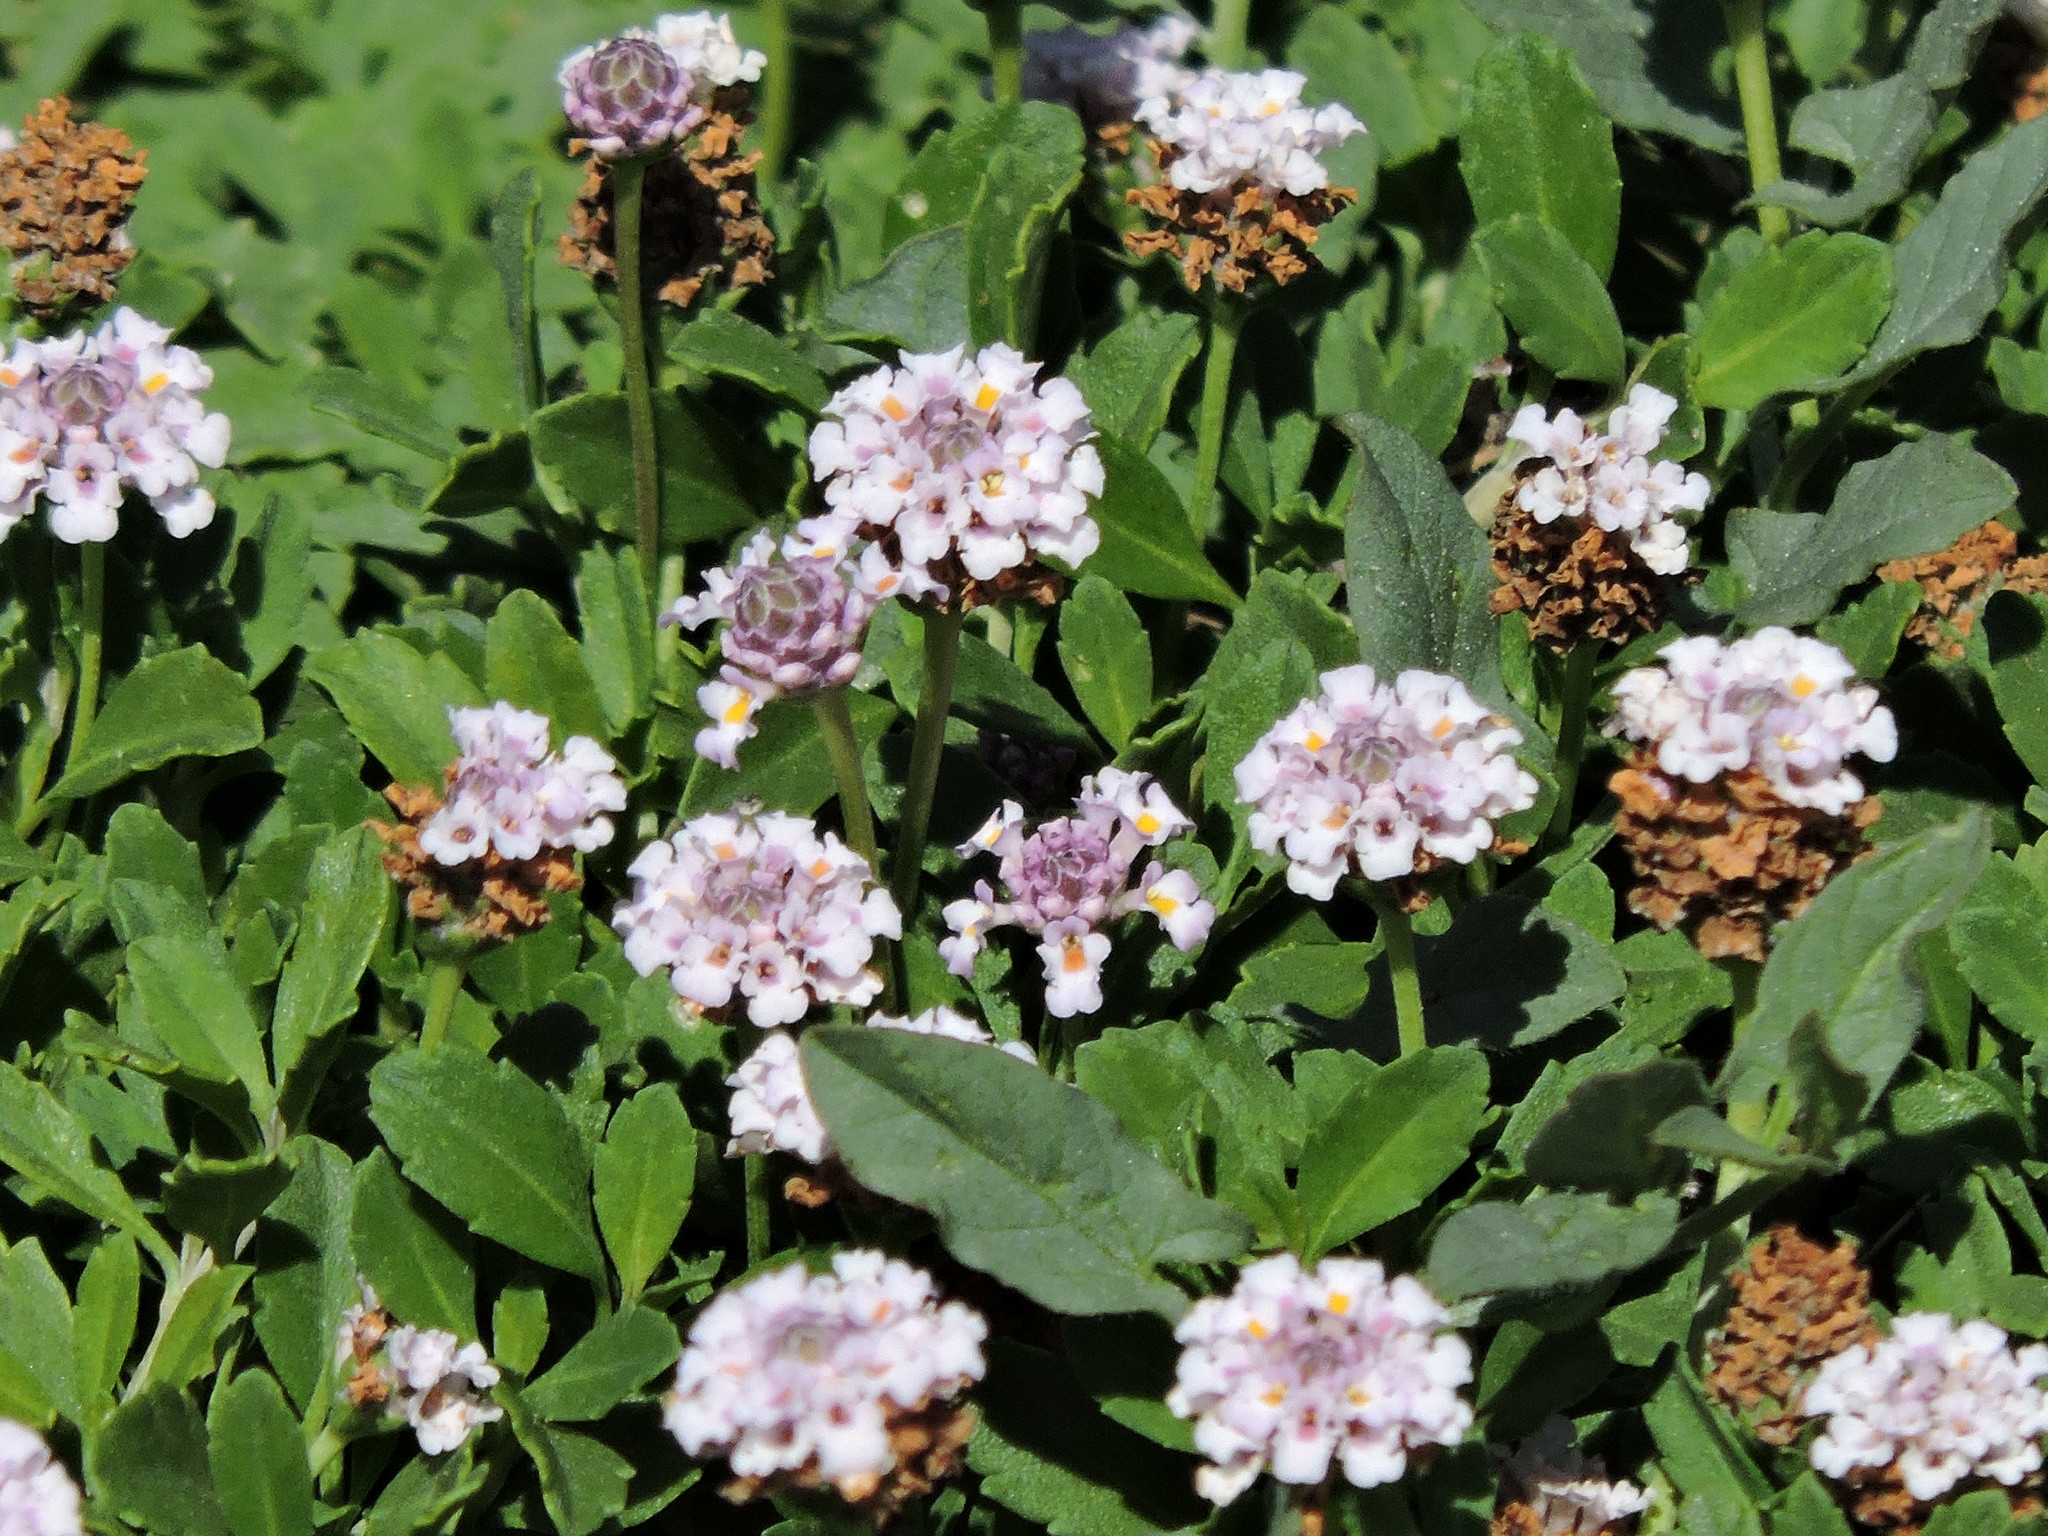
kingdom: Plantae
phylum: Tracheophyta
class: Magnoliopsida
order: Lamiales
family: Verbenaceae
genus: Phyla
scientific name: Phyla nodiflora
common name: Frogfruit
